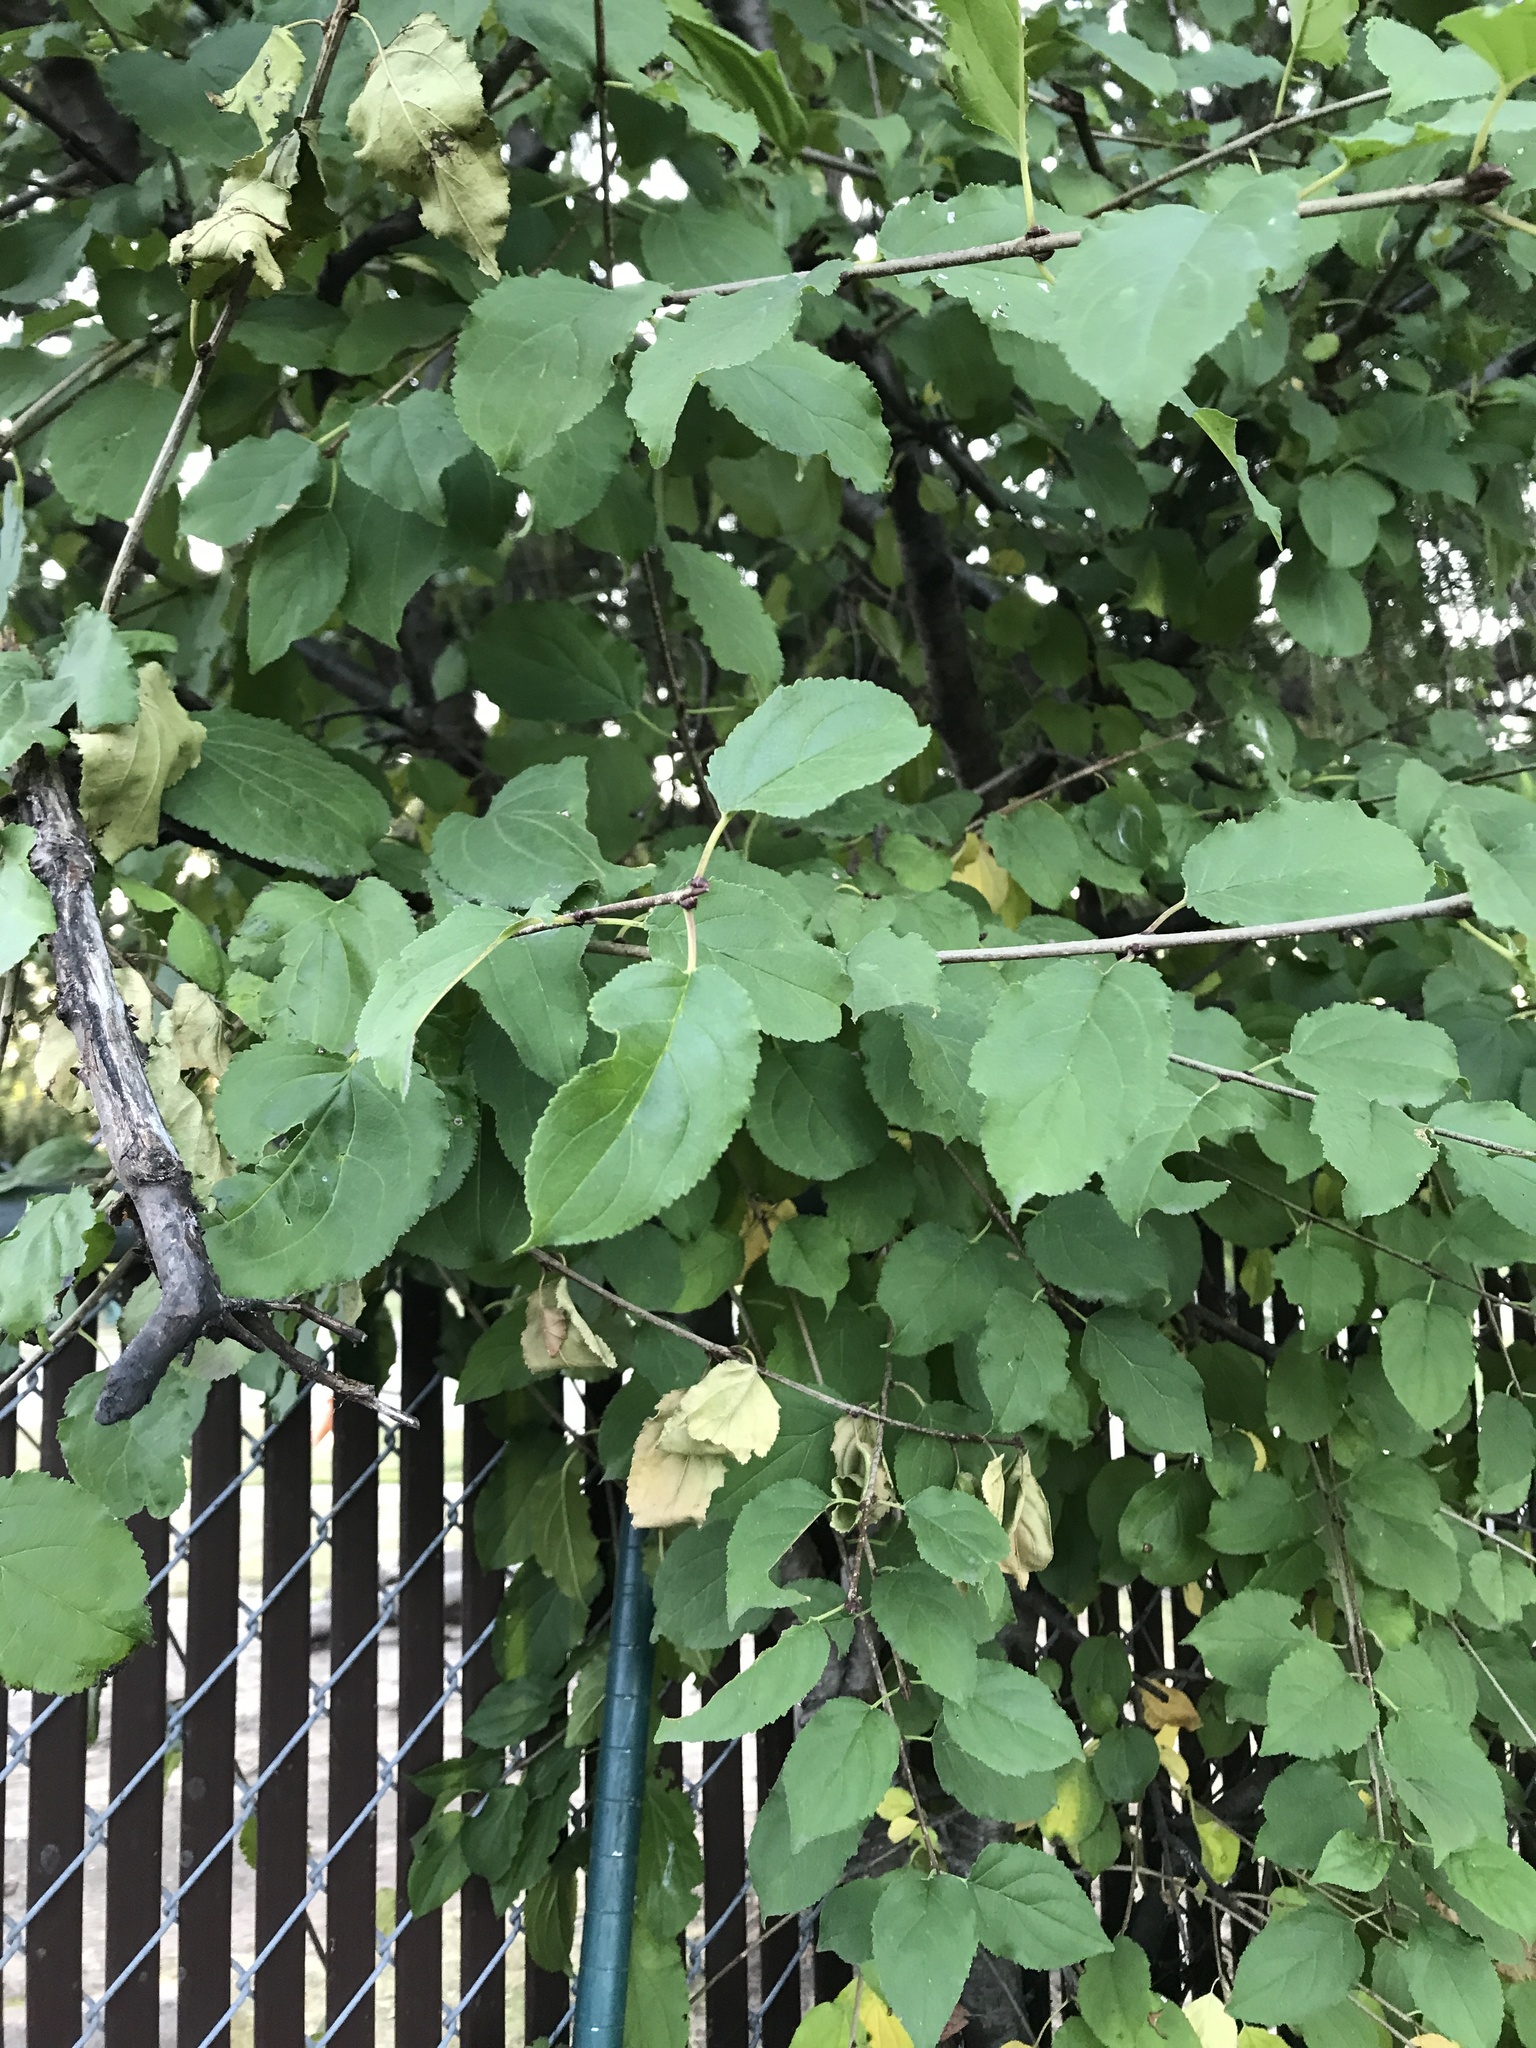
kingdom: Plantae
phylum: Tracheophyta
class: Magnoliopsida
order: Rosales
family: Rhamnaceae
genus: Rhamnus
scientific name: Rhamnus cathartica
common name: Common buckthorn
